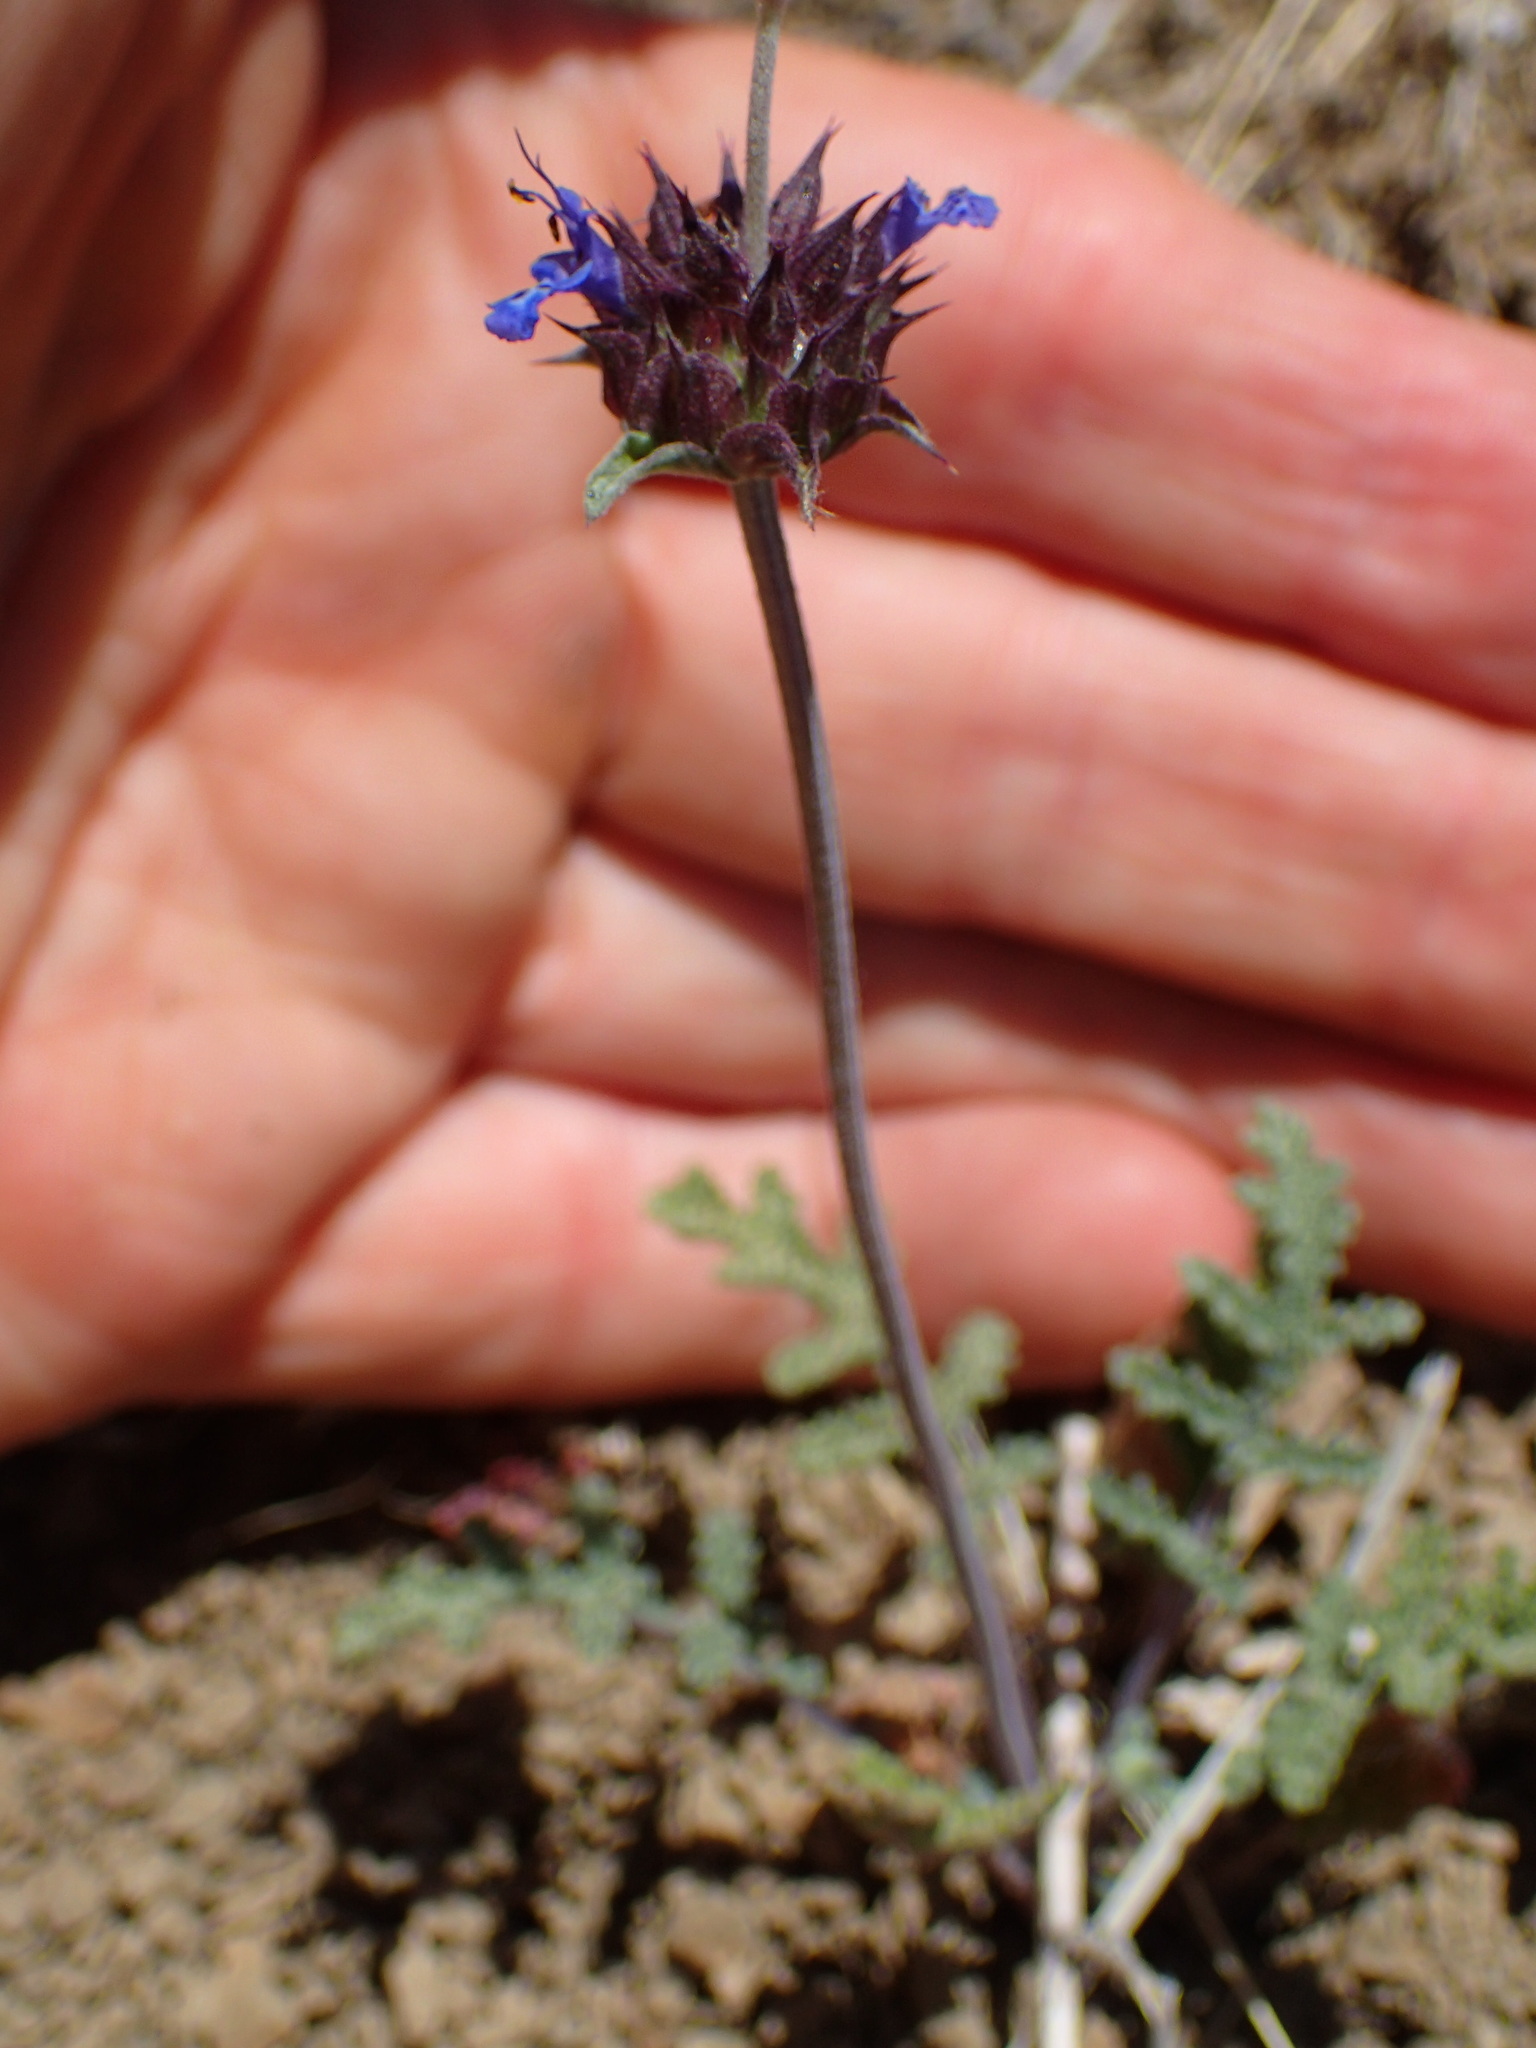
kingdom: Plantae
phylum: Tracheophyta
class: Magnoliopsida
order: Lamiales
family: Lamiaceae
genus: Salvia
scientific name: Salvia columbariae
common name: Chia
